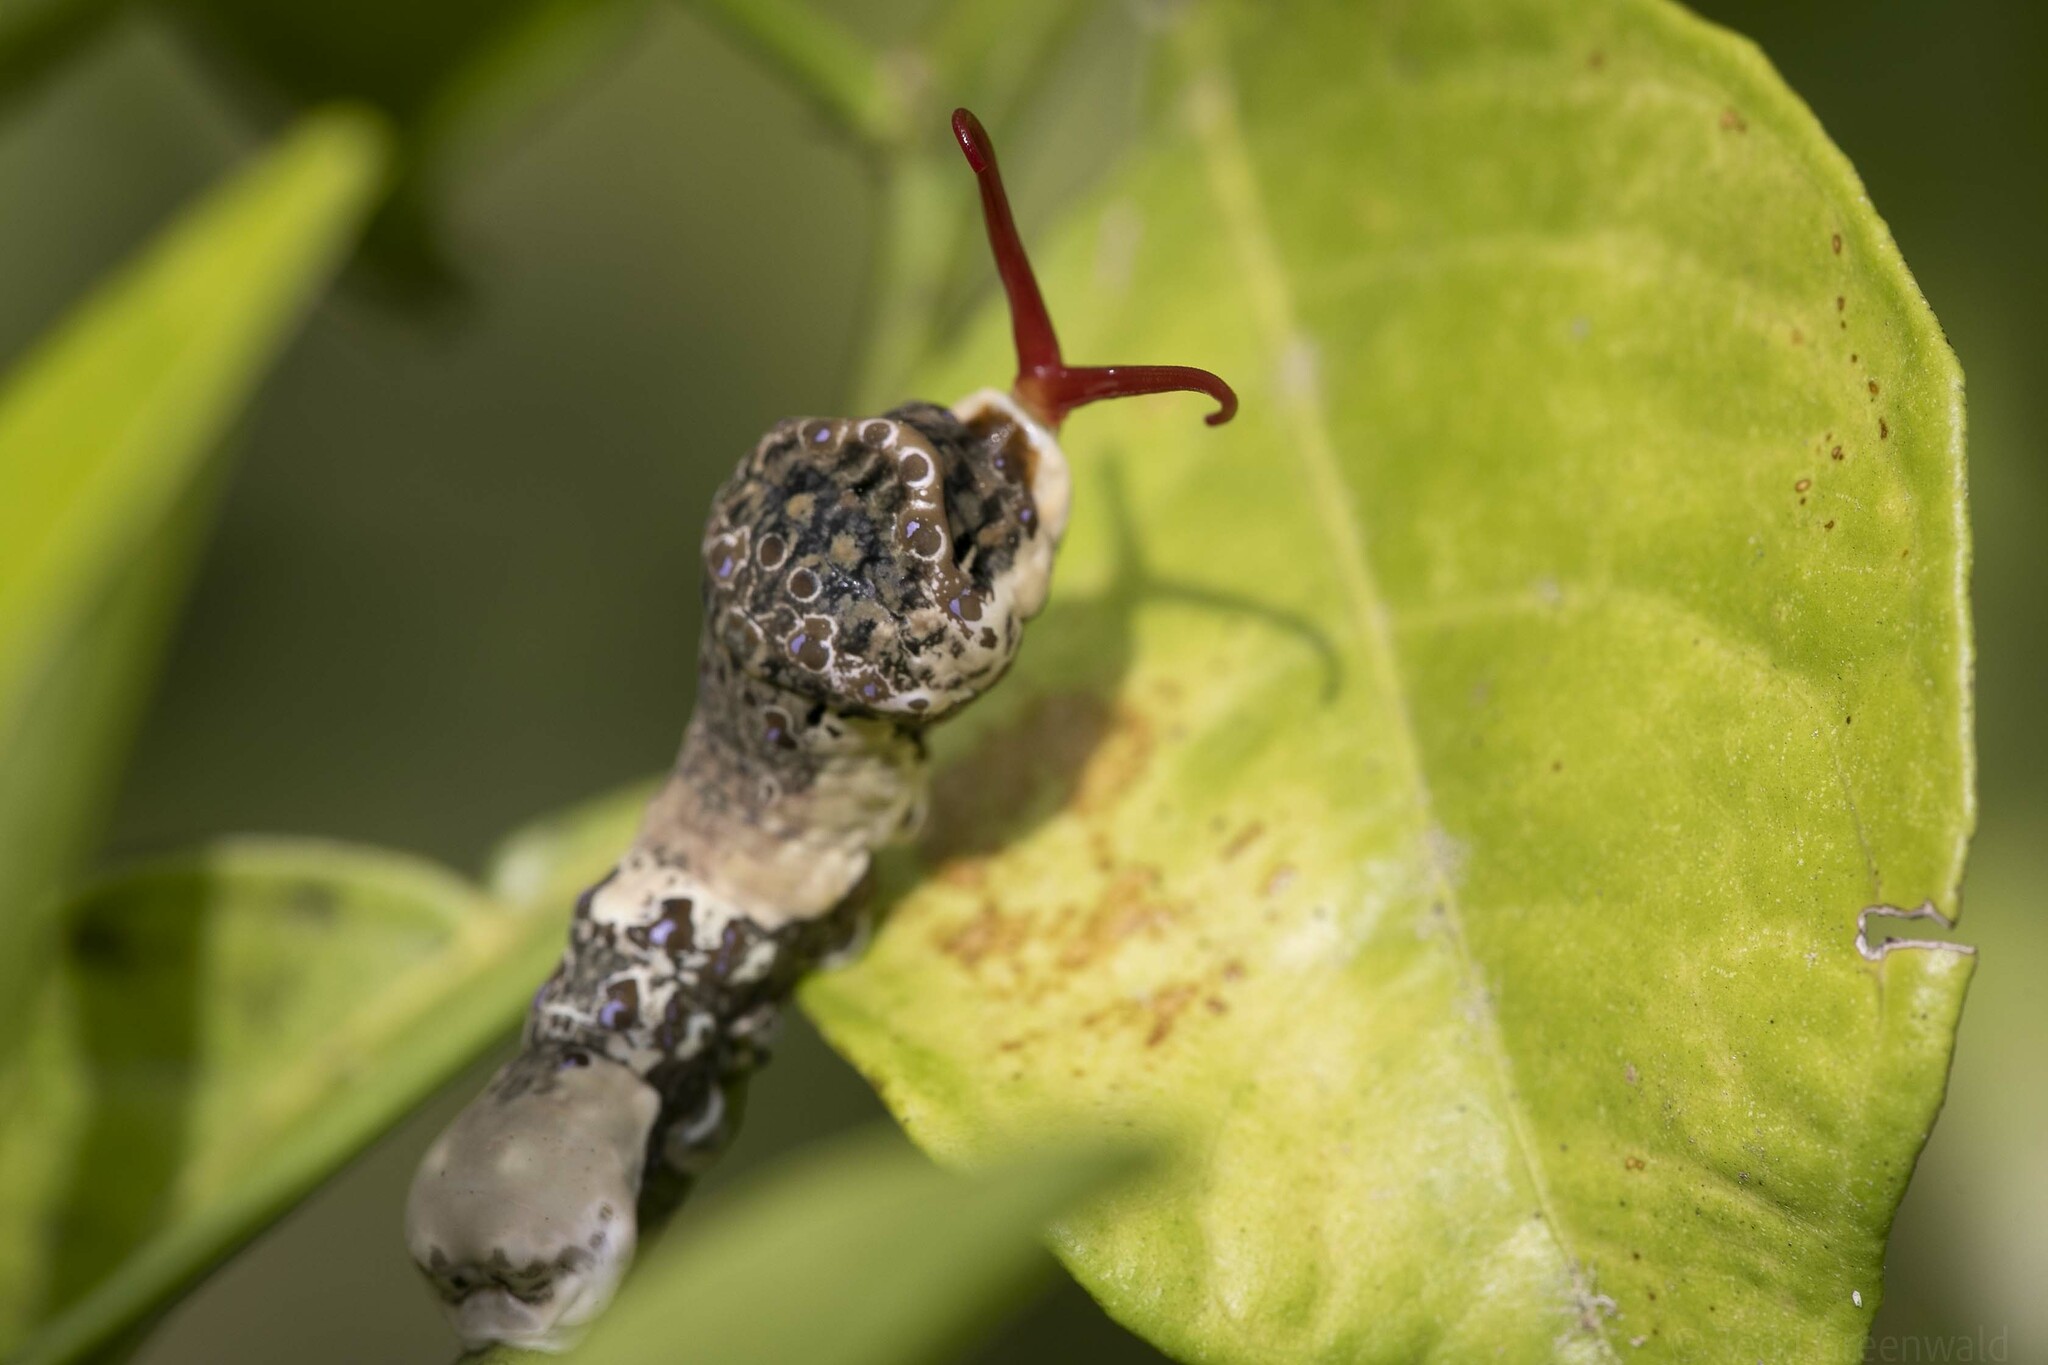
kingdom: Animalia
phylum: Arthropoda
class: Insecta
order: Lepidoptera
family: Papilionidae
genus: Papilio
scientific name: Papilio cresphontes
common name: Giant swallowtail
